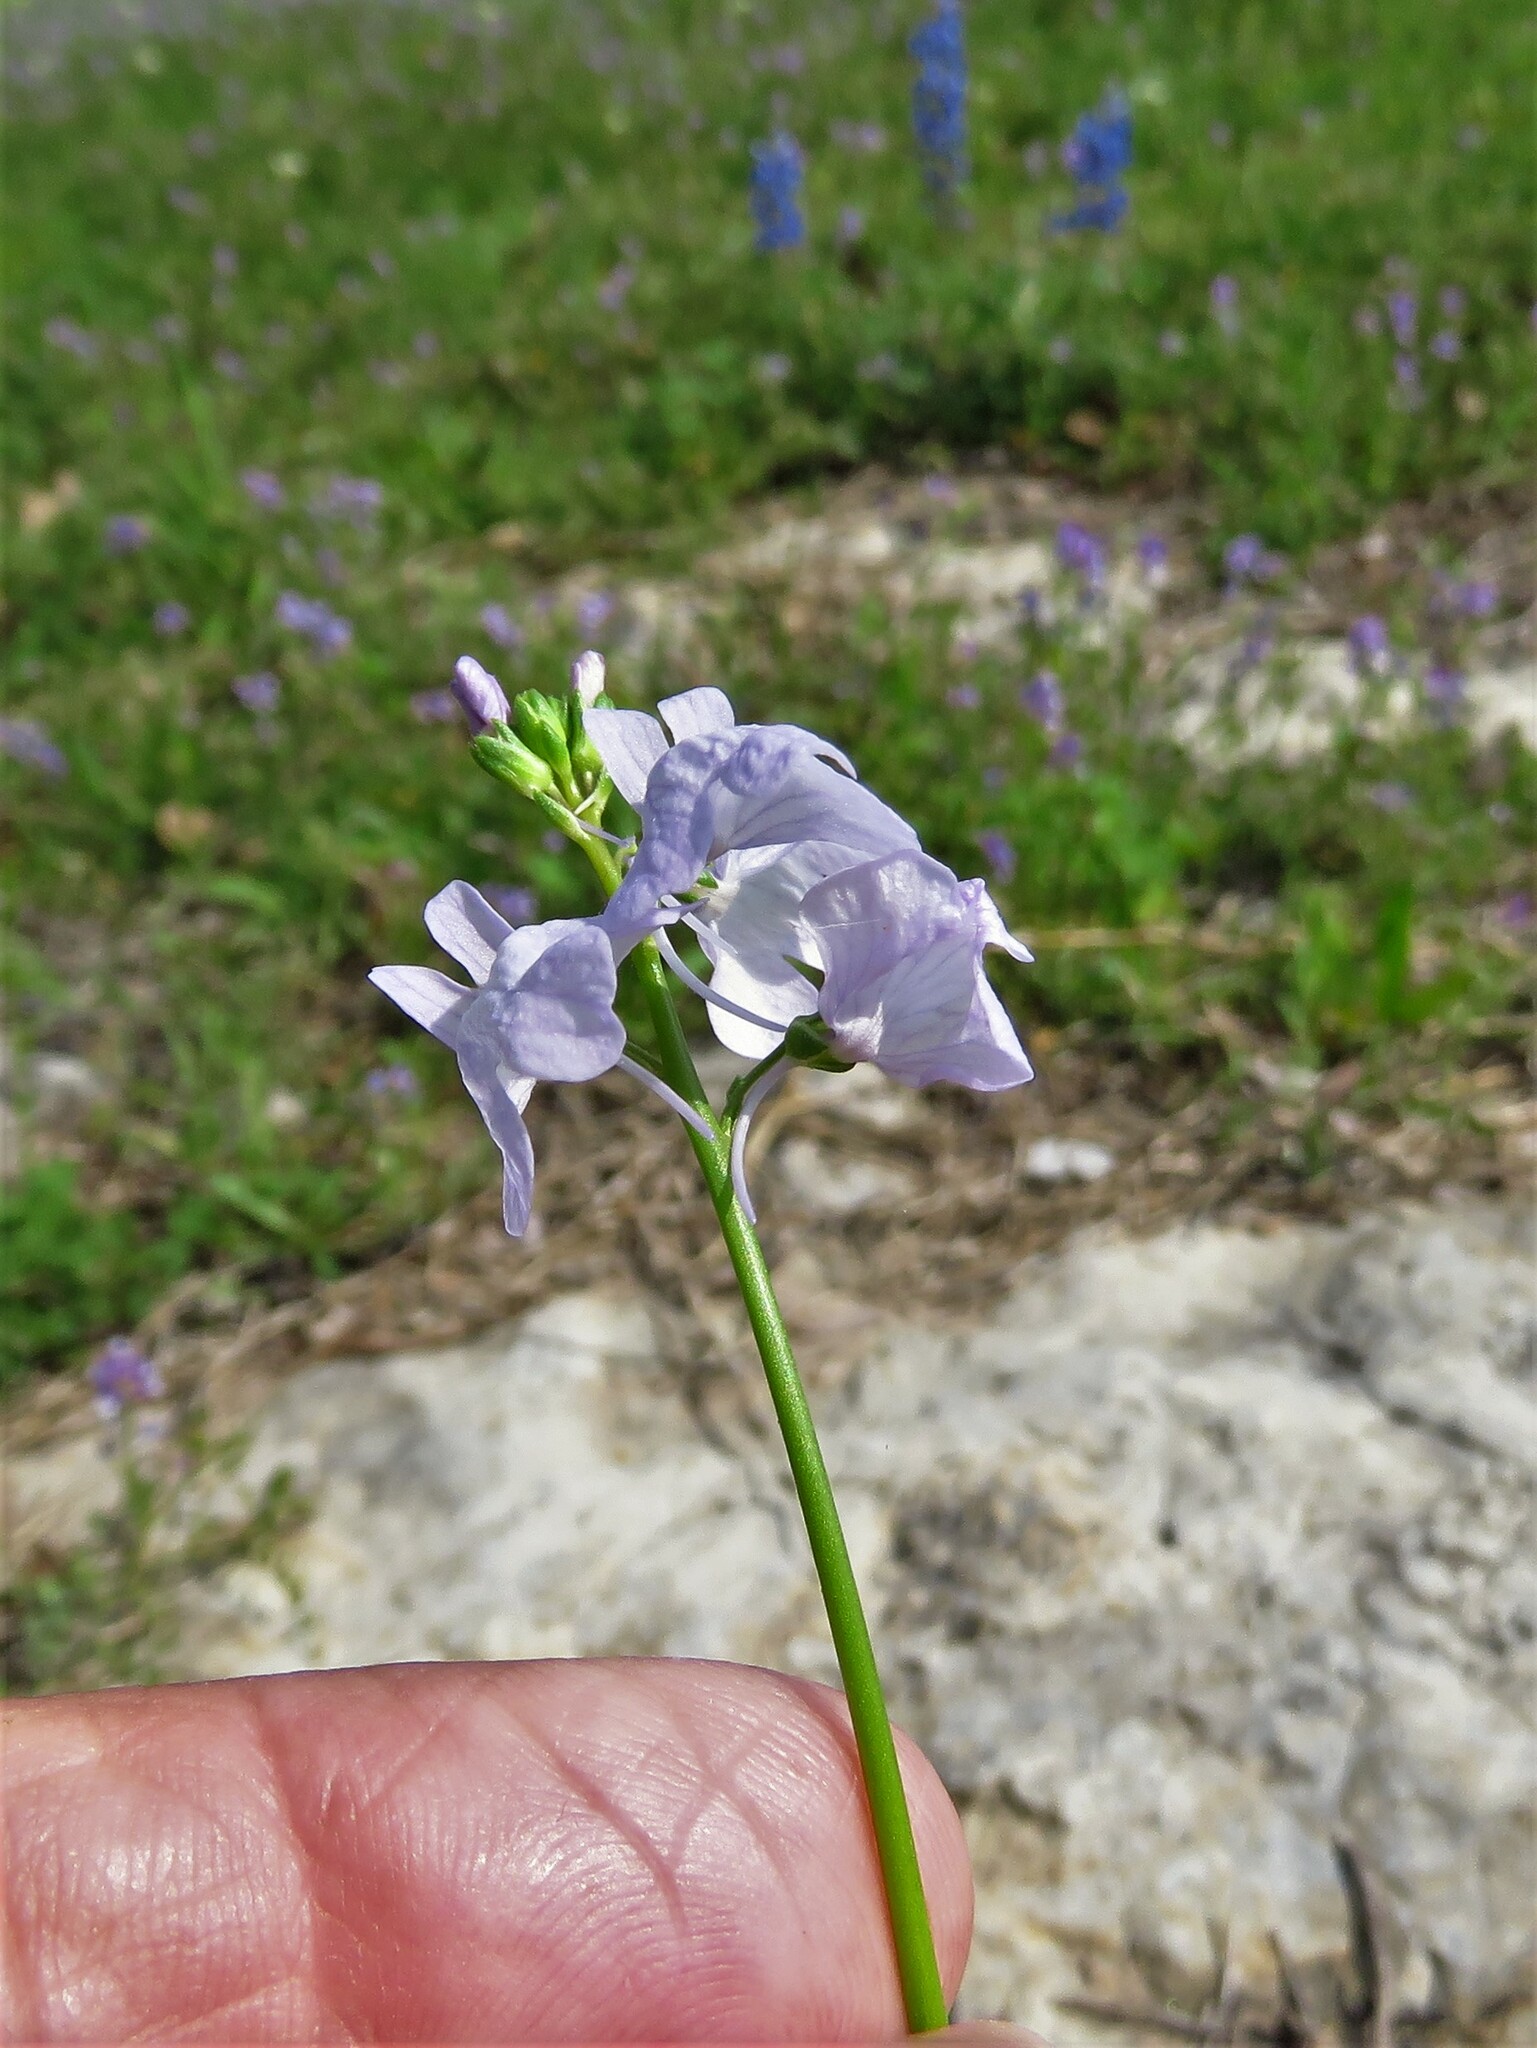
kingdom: Plantae
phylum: Tracheophyta
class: Magnoliopsida
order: Lamiales
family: Plantaginaceae
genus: Nuttallanthus
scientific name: Nuttallanthus texanus
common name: Texas toadflax
